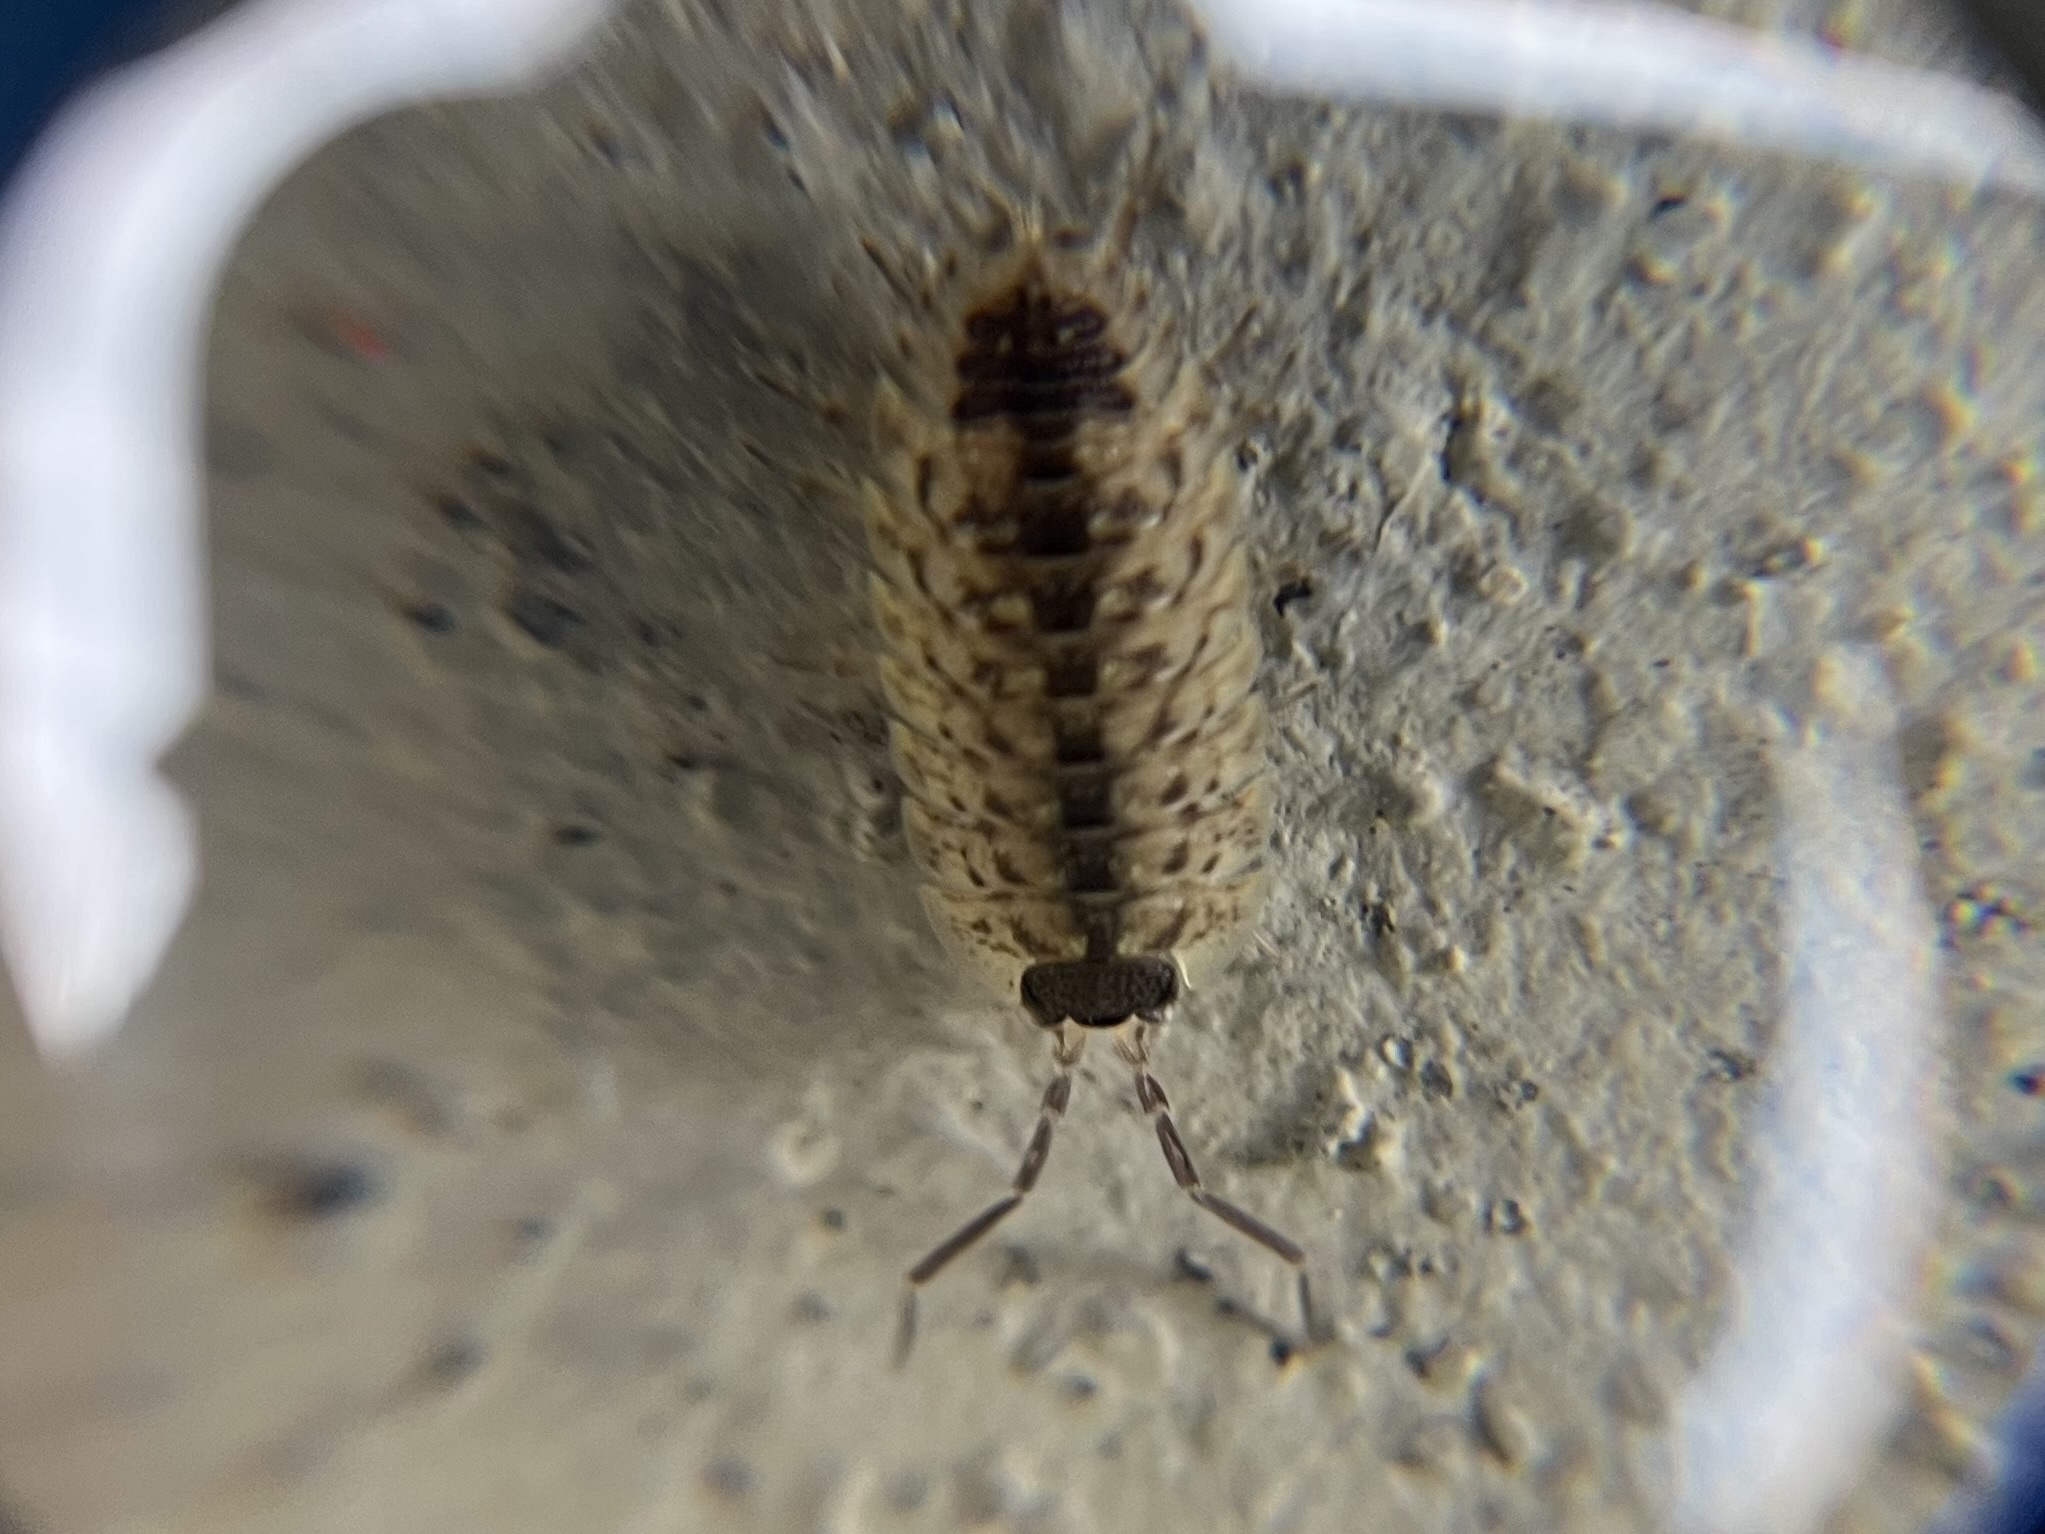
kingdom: Animalia
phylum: Arthropoda
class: Malacostraca
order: Isopoda
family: Porcellionidae
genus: Porcellio
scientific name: Porcellio spinicornis
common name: Painted woodlouse
